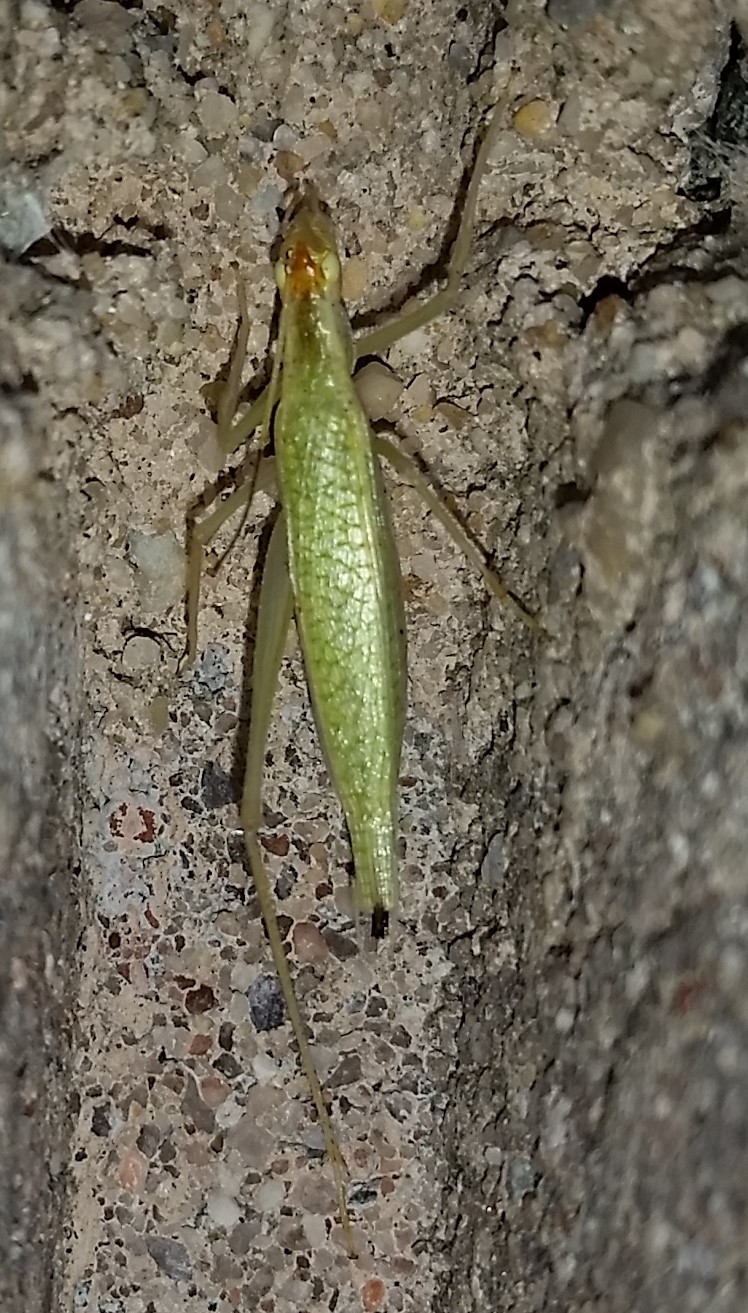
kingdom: Animalia
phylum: Arthropoda
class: Insecta
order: Orthoptera
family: Gryllidae
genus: Oecanthus
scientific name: Oecanthus niveus
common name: Narrow-winged tree cricket
